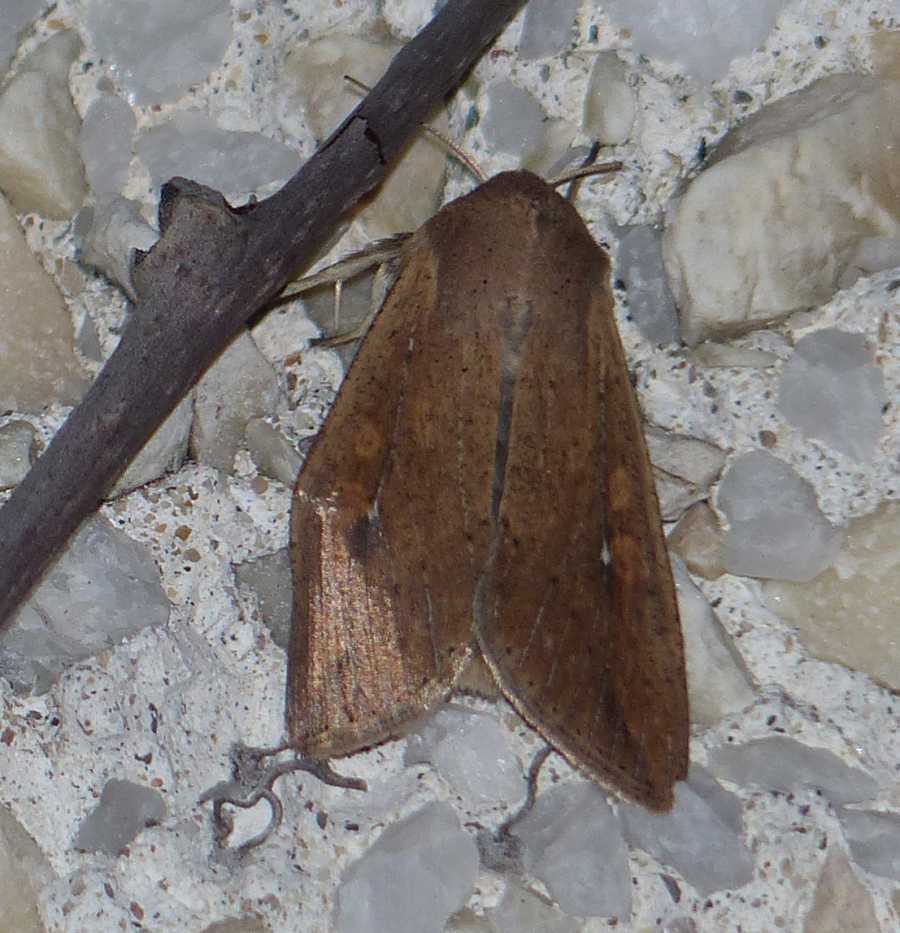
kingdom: Animalia
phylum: Arthropoda
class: Insecta
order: Lepidoptera
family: Noctuidae
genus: Mythimna
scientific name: Mythimna unipuncta
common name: White-speck
